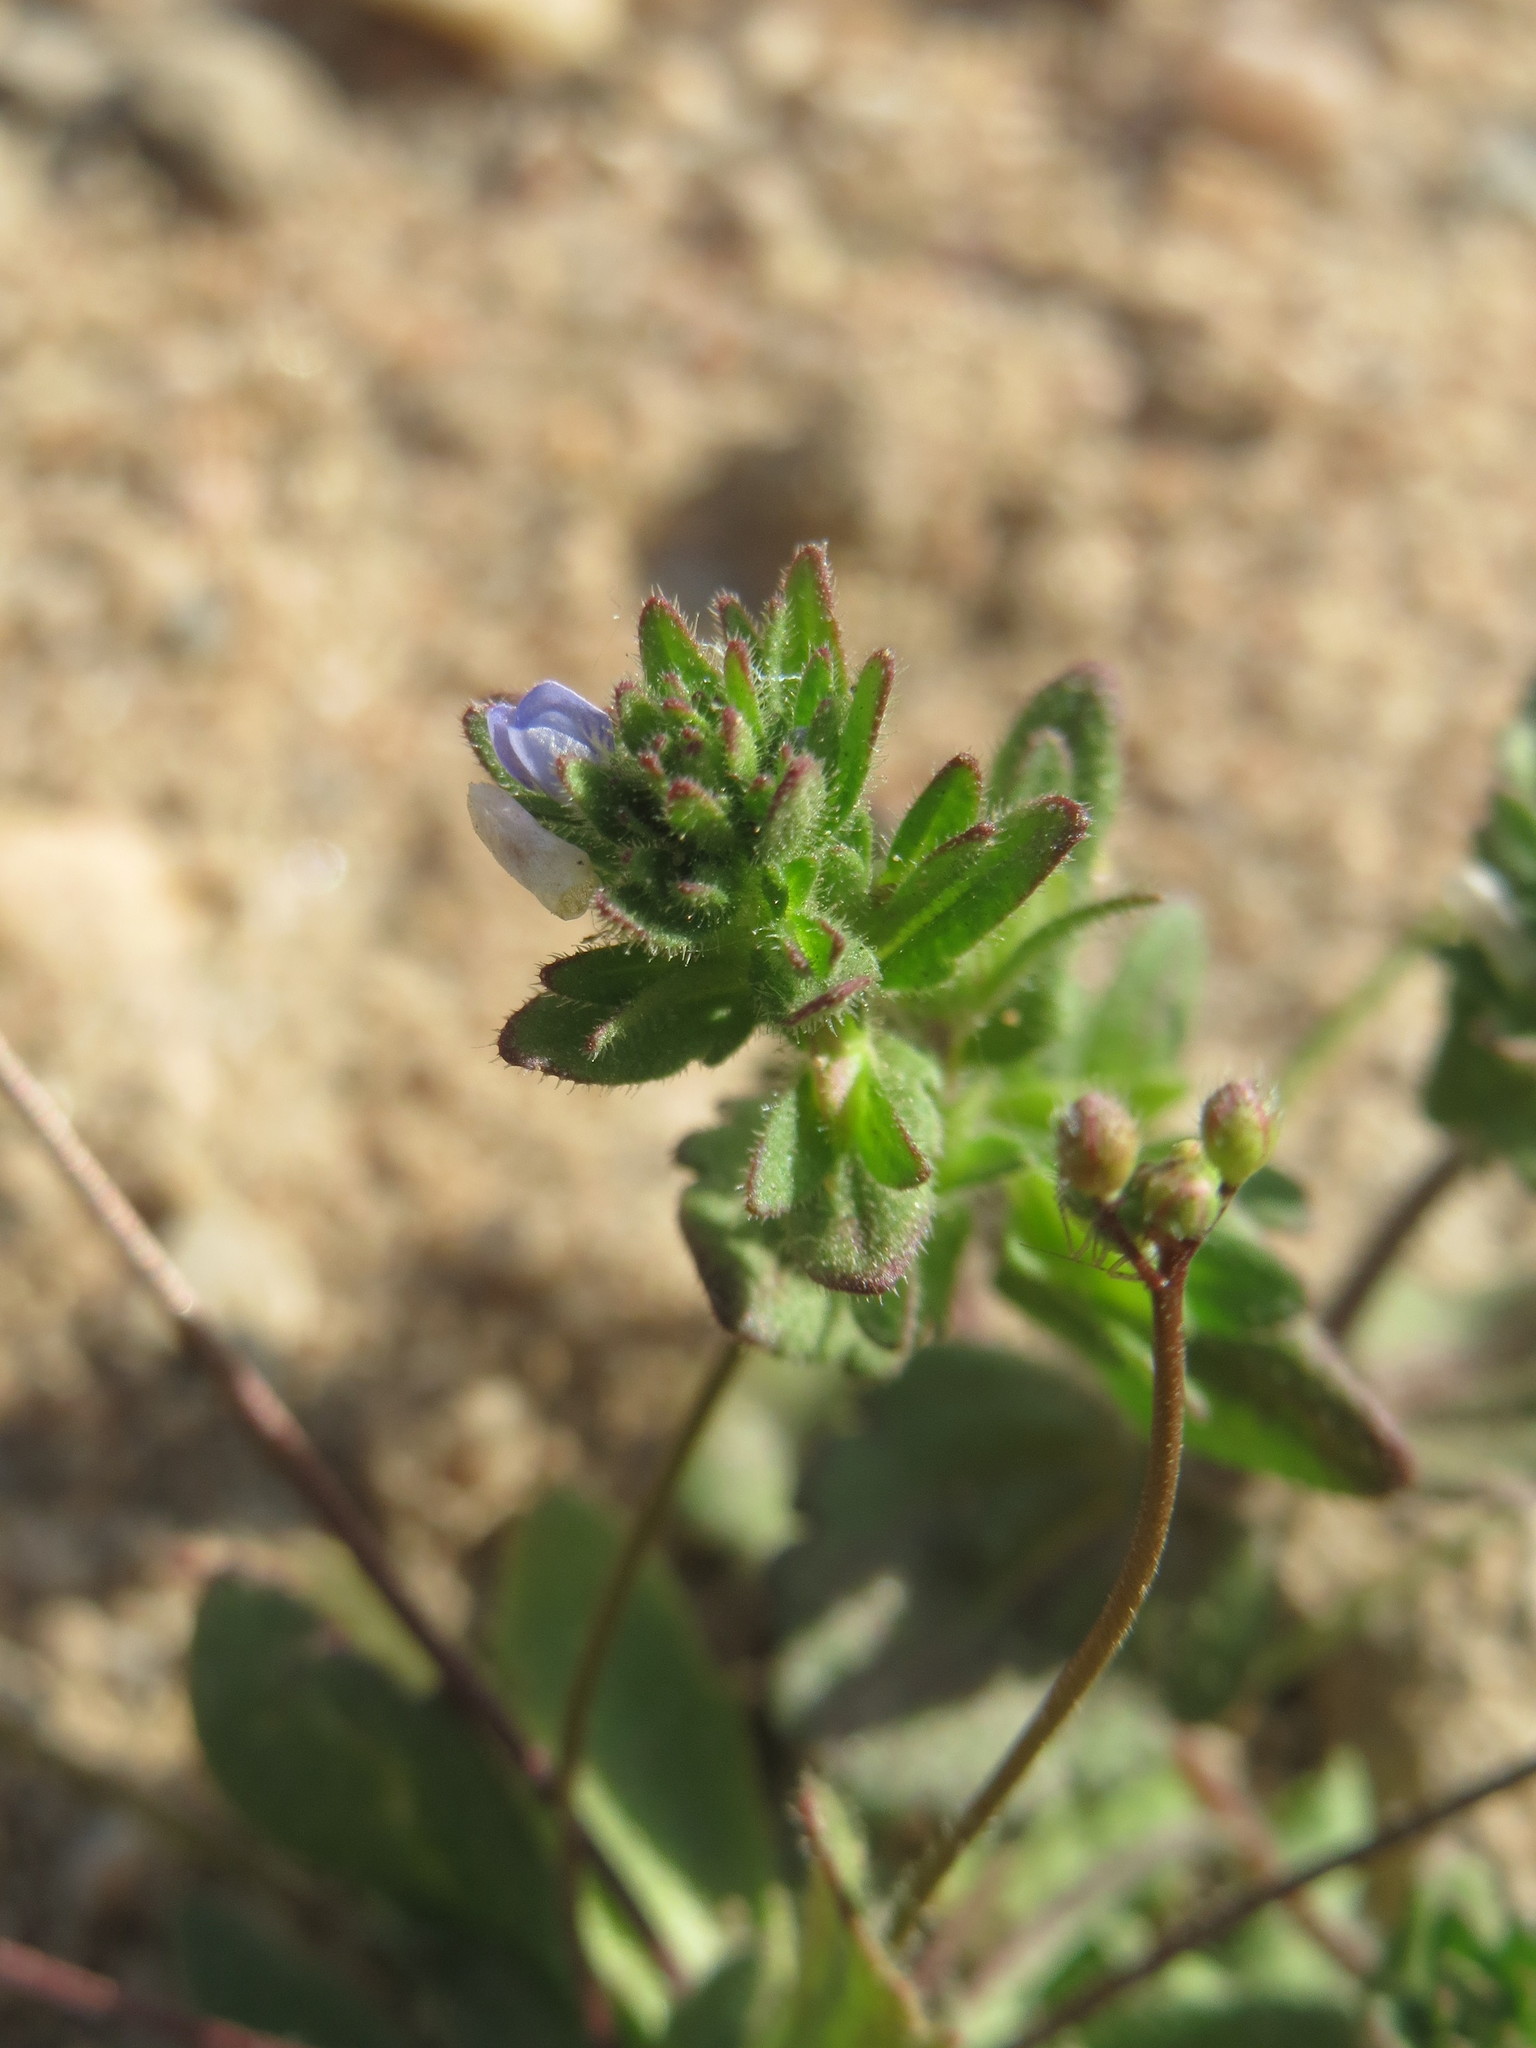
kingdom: Plantae
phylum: Tracheophyta
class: Magnoliopsida
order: Lamiales
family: Plantaginaceae
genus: Veronica
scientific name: Veronica arvensis
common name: Corn speedwell
